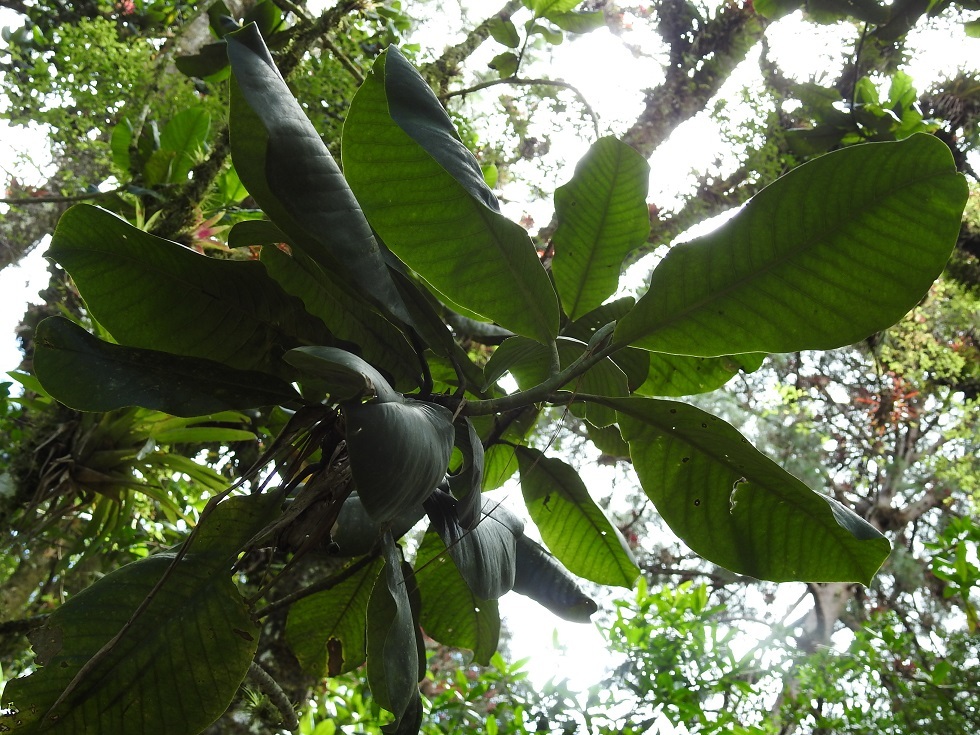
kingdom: Plantae
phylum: Tracheophyta
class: Magnoliopsida
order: Magnoliales
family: Magnoliaceae
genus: Magnolia
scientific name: Magnolia sharpii
